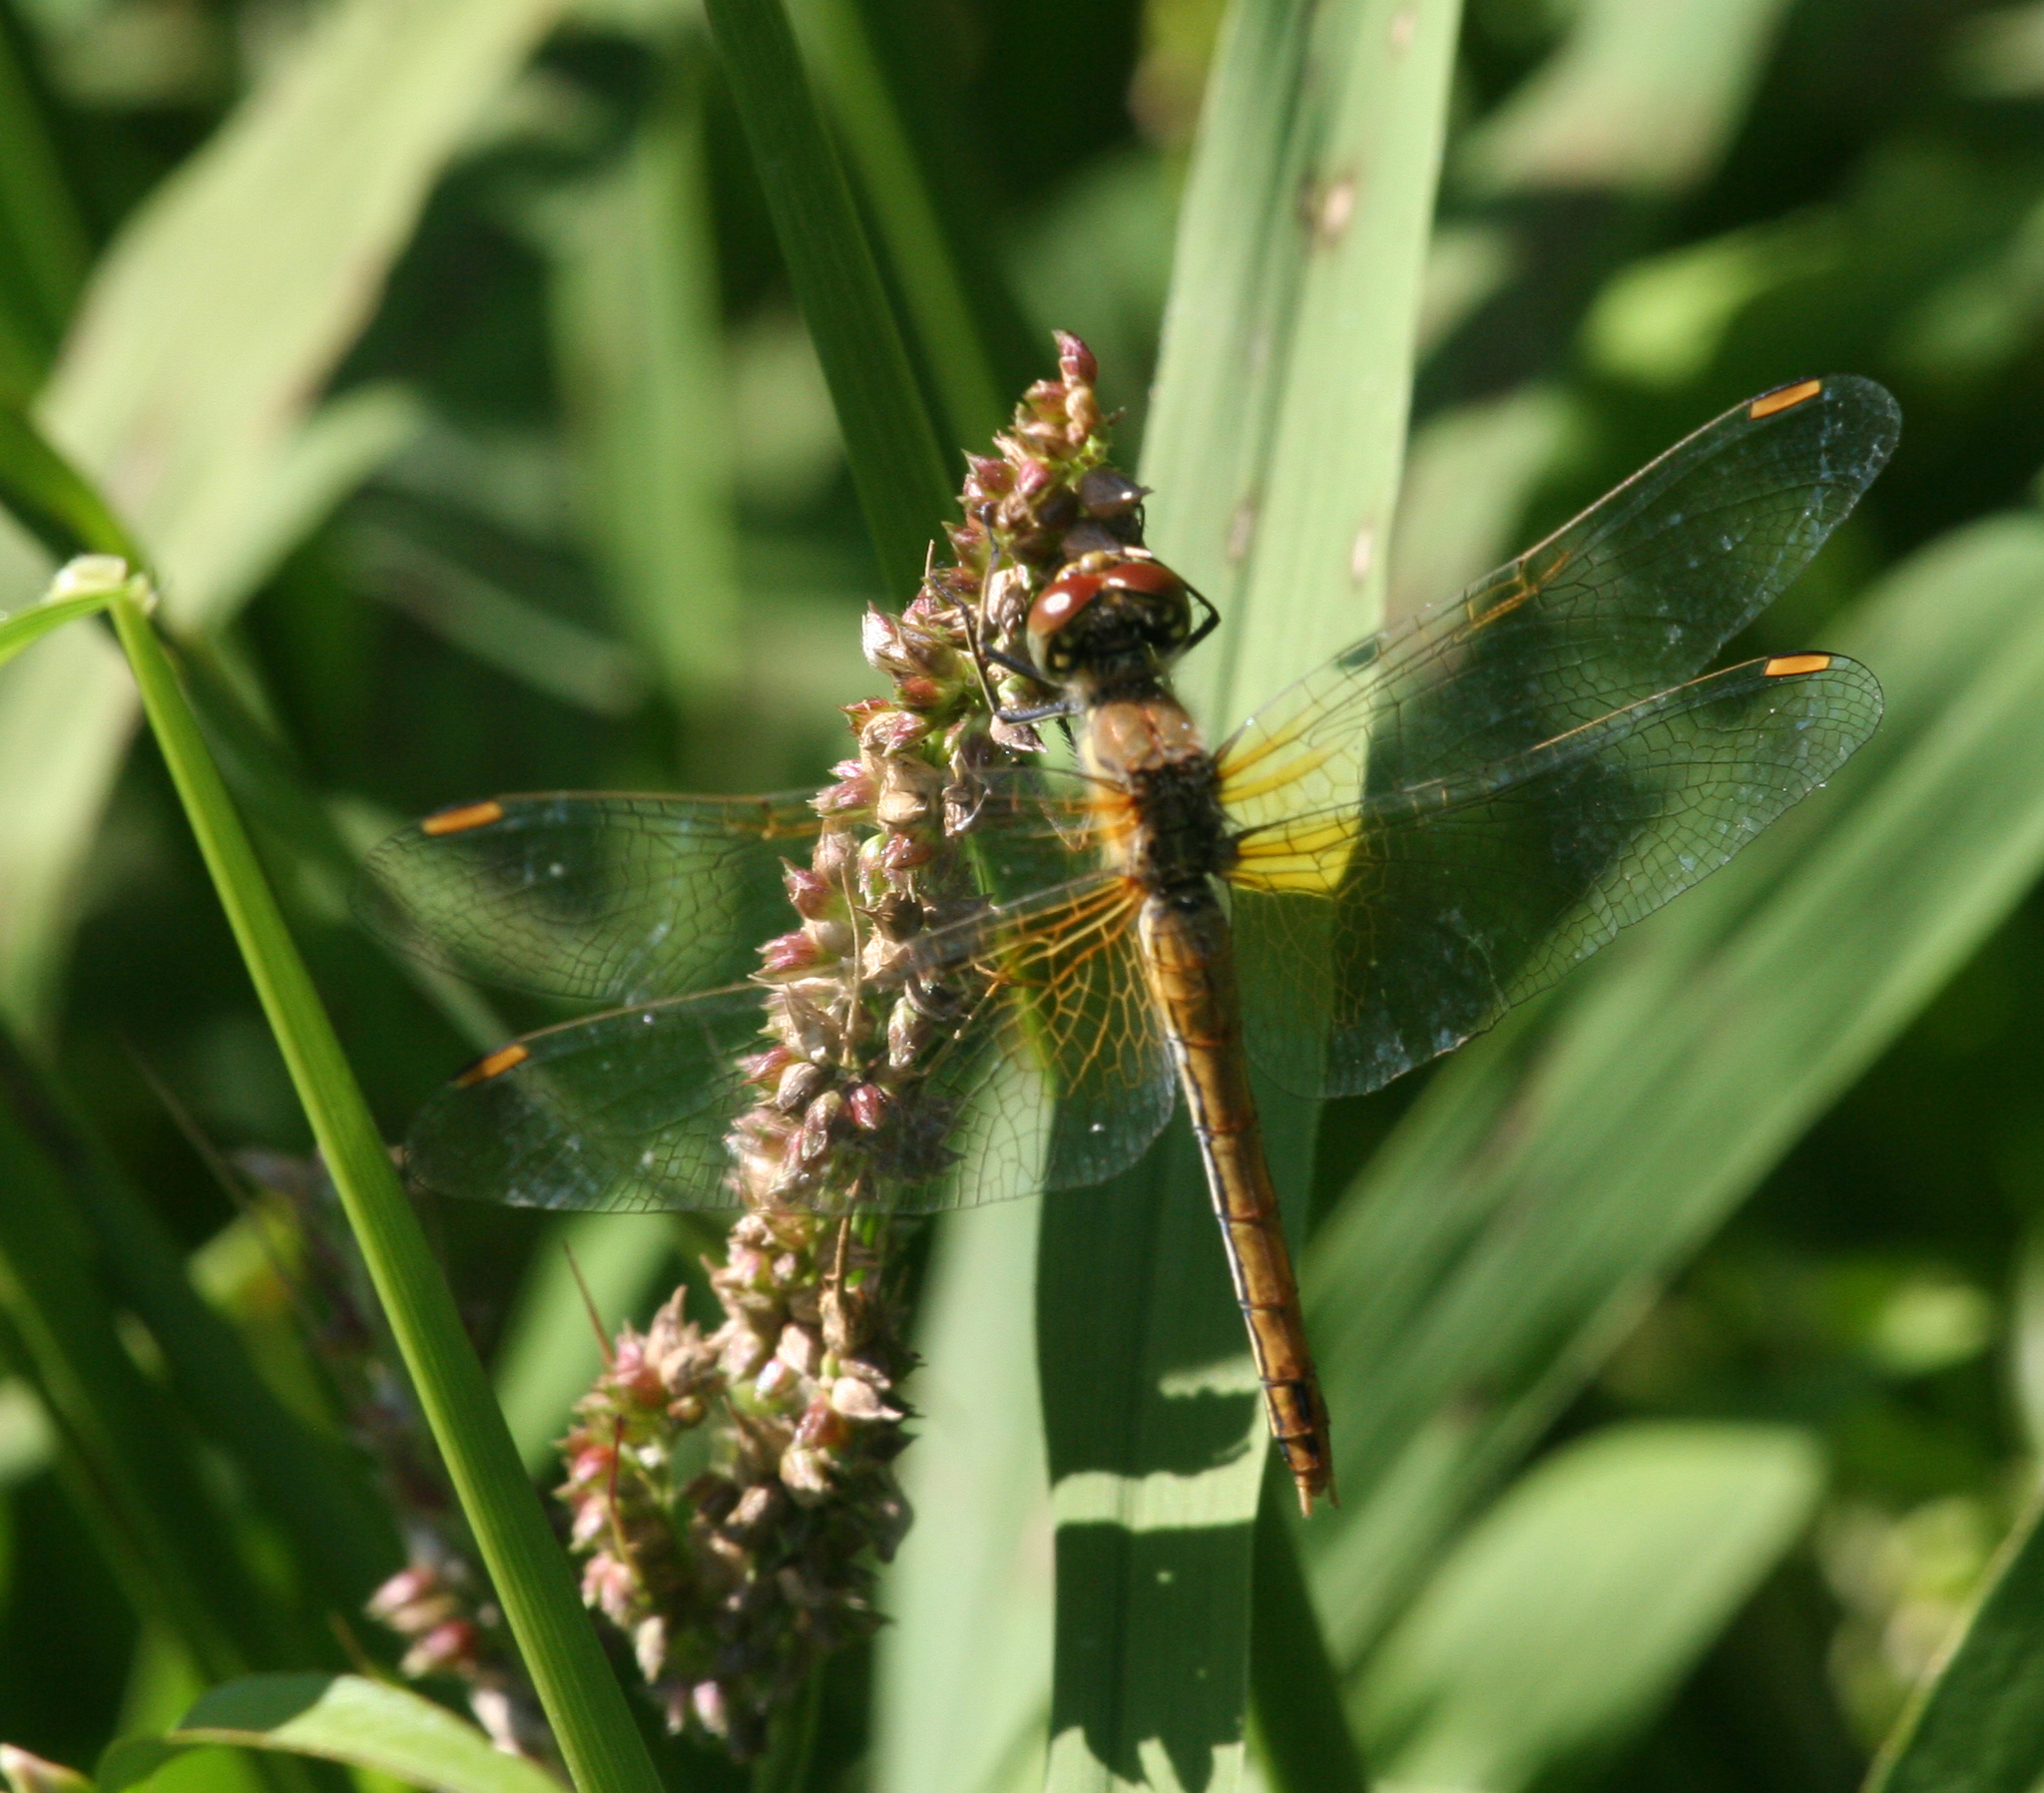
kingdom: Plantae
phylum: Tracheophyta
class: Liliopsida
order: Poales
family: Poaceae
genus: Echinochloa
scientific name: Echinochloa crus-galli
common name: Cockspur
